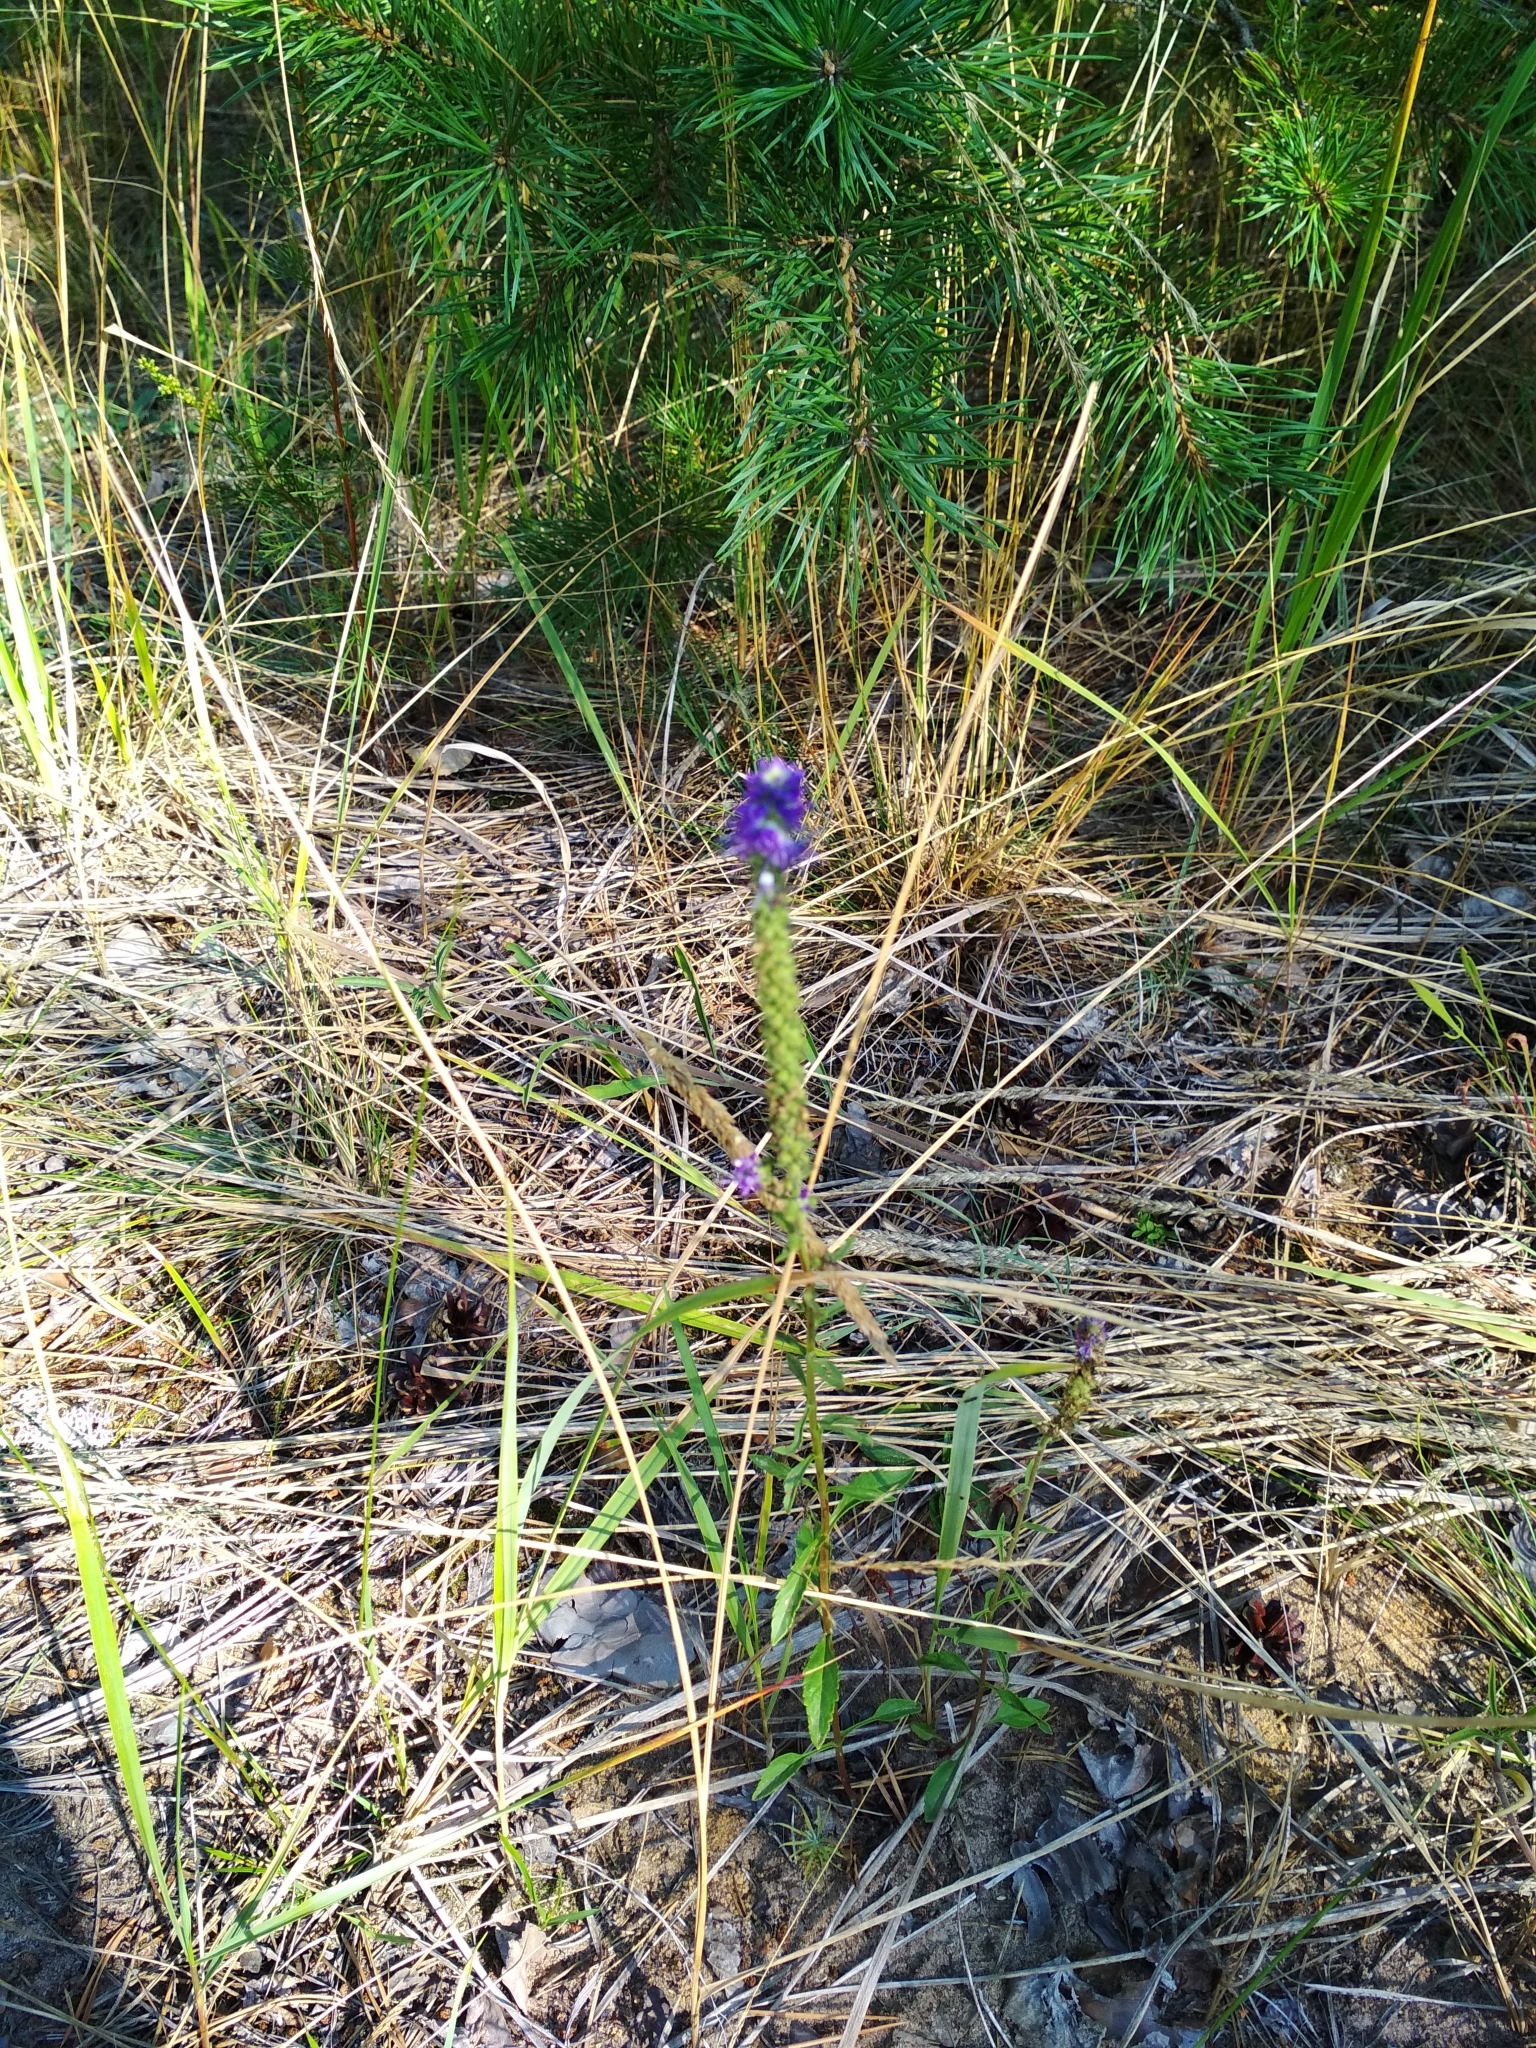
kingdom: Plantae
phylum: Tracheophyta
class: Magnoliopsida
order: Lamiales
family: Plantaginaceae
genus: Veronica
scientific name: Veronica spicata
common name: Spiked speedwell
